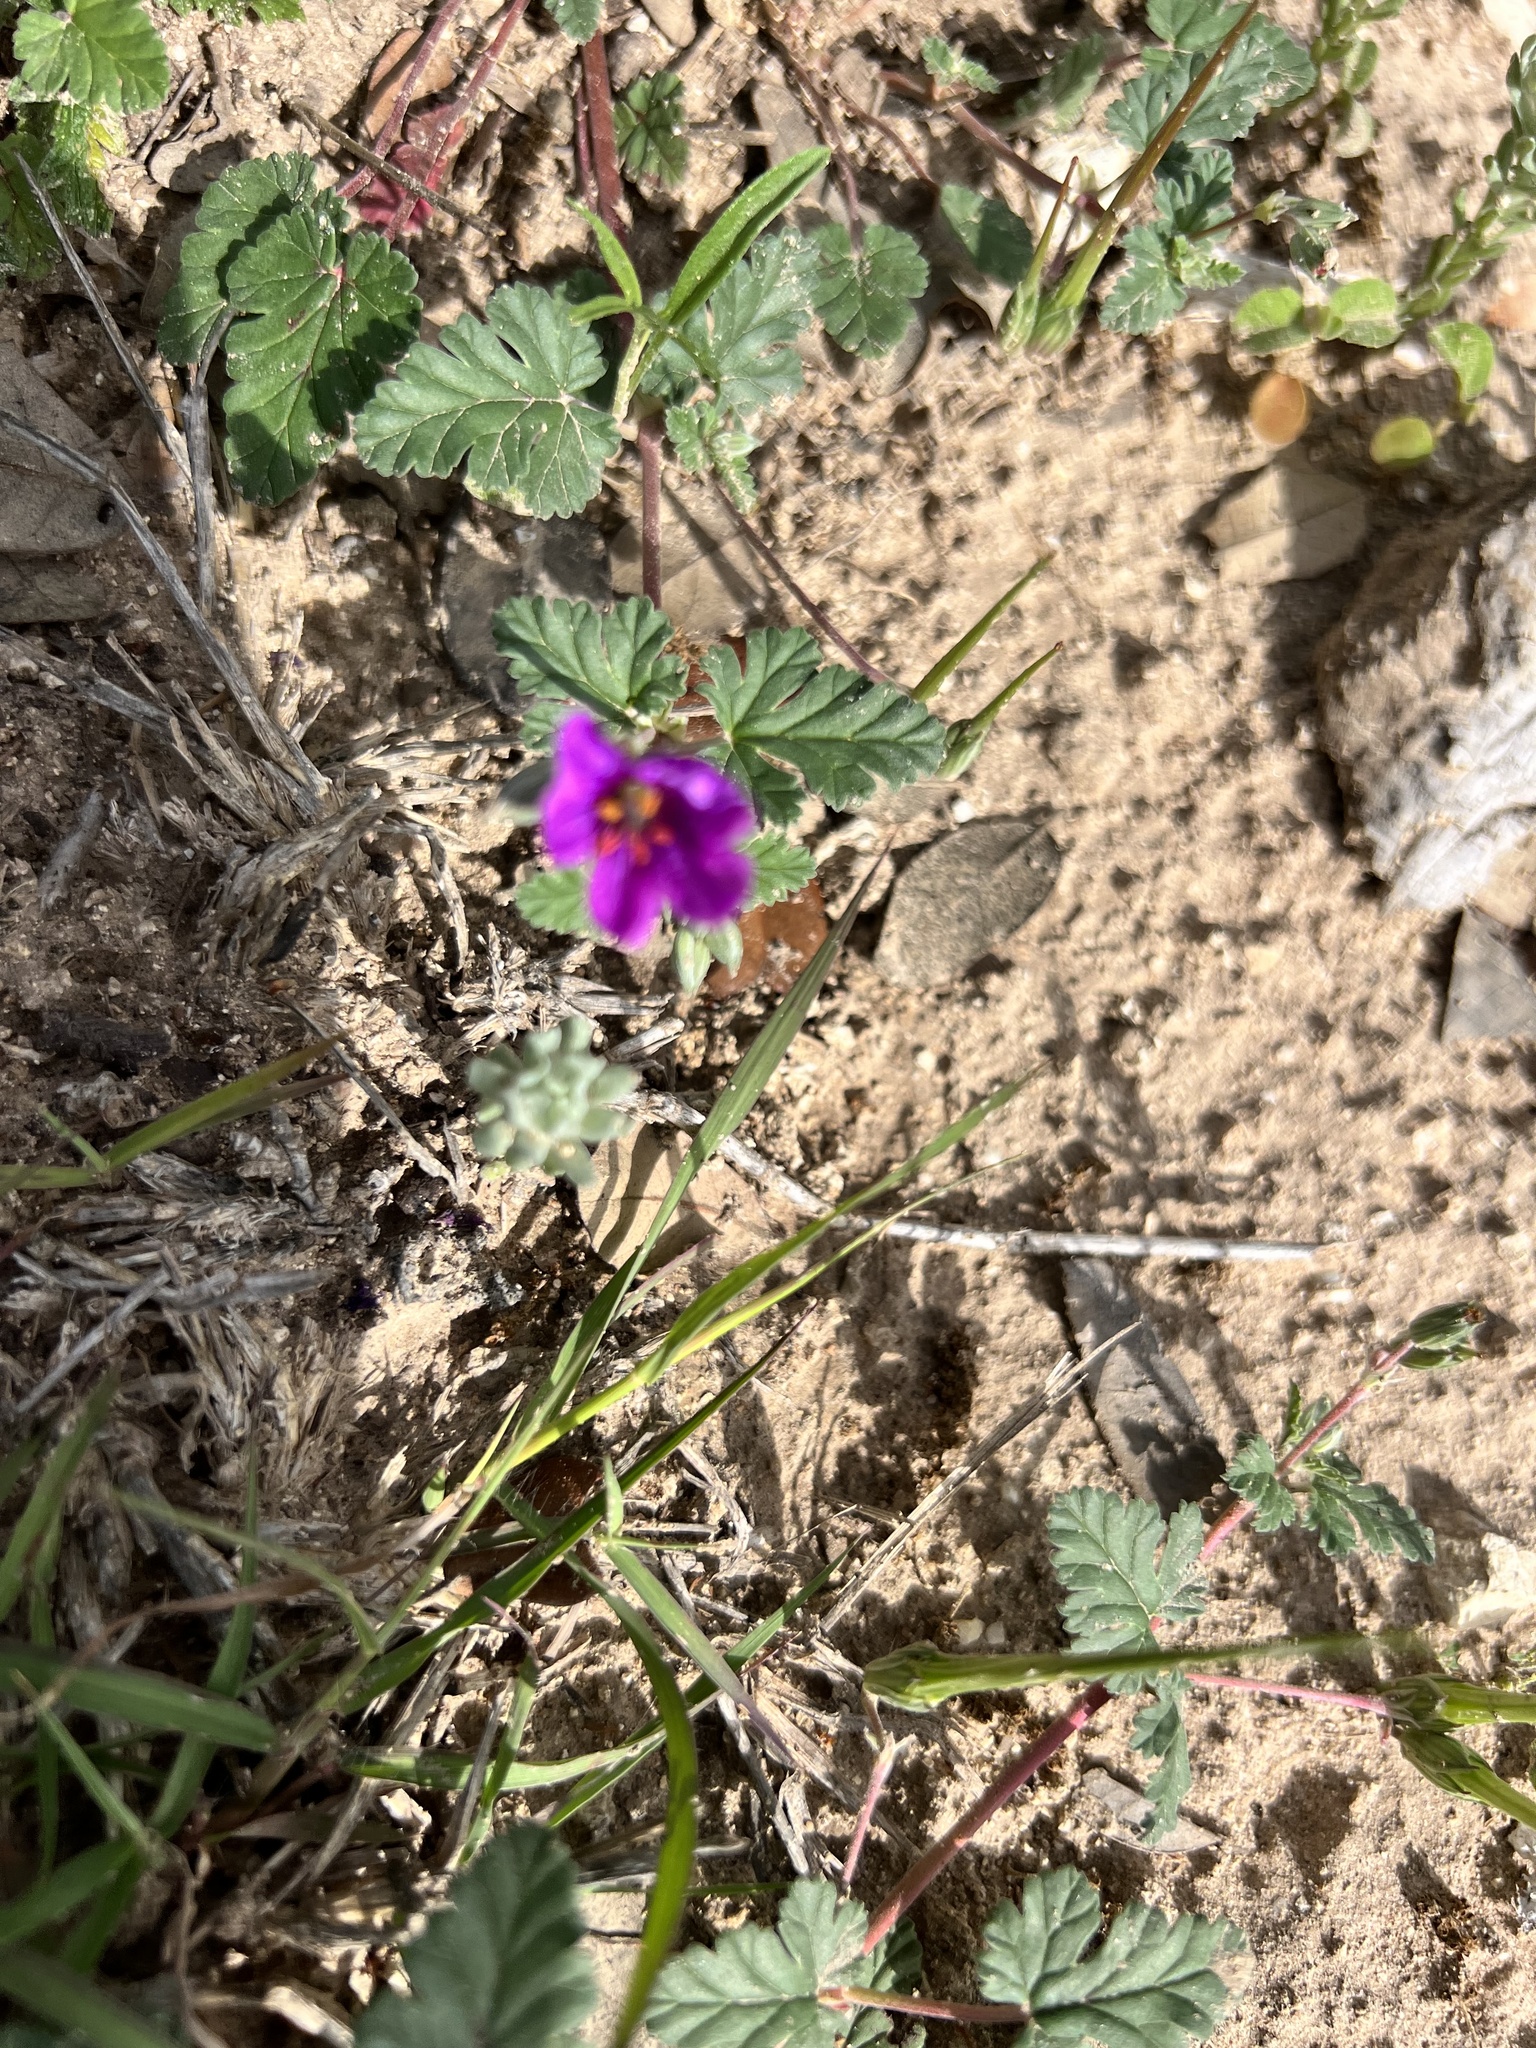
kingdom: Plantae
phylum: Tracheophyta
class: Magnoliopsida
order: Geraniales
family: Geraniaceae
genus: Erodium
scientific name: Erodium texanum
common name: Texas stork's-bill
